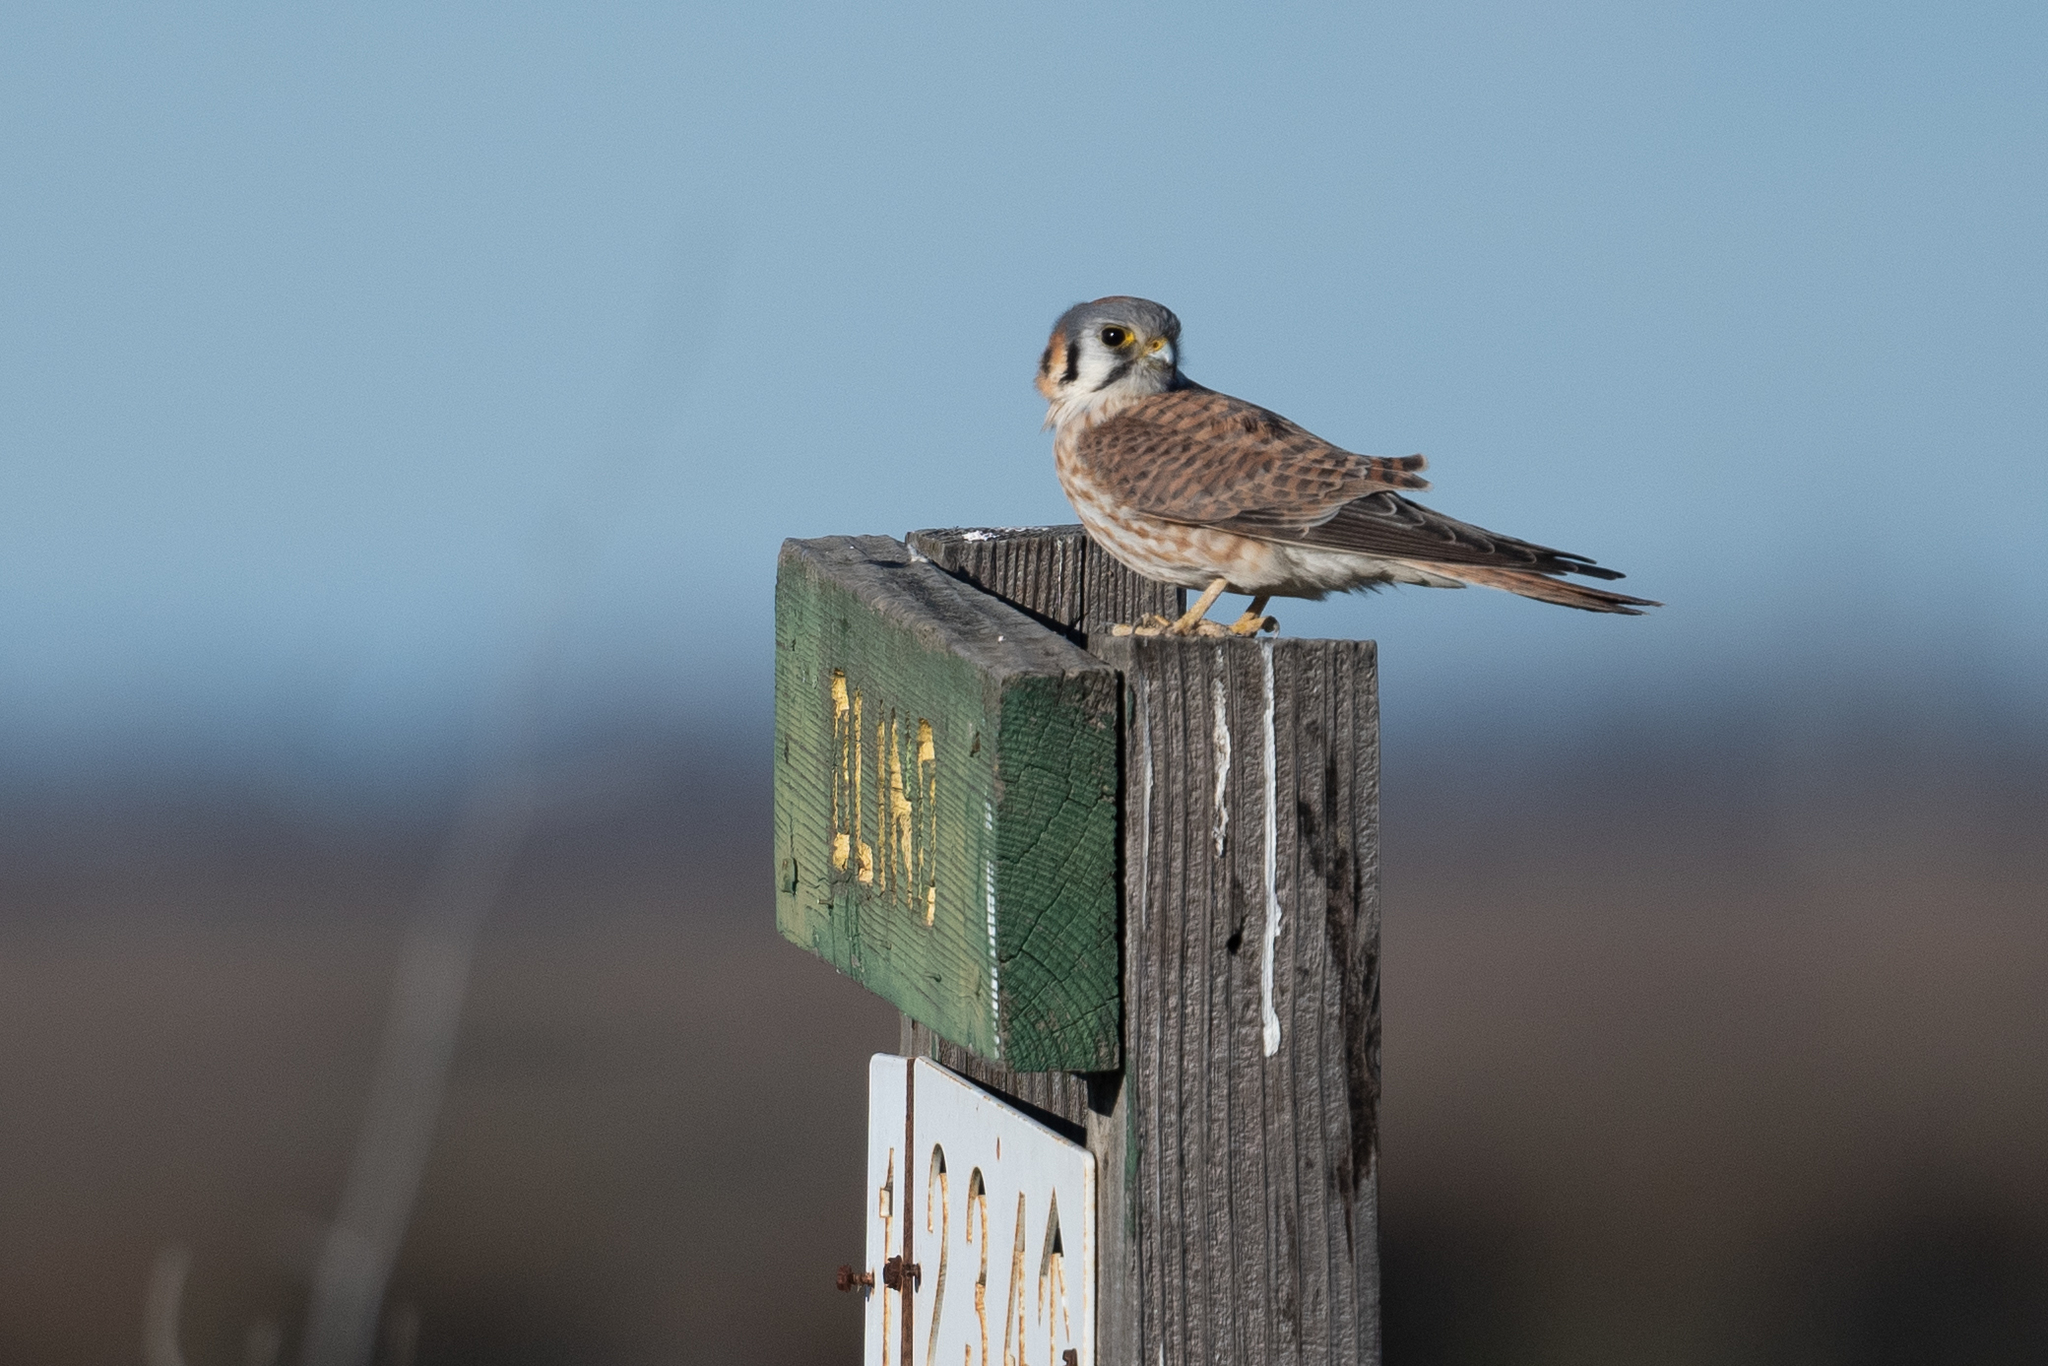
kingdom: Animalia
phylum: Chordata
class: Aves
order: Falconiformes
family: Falconidae
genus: Falco
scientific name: Falco sparverius
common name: American kestrel
